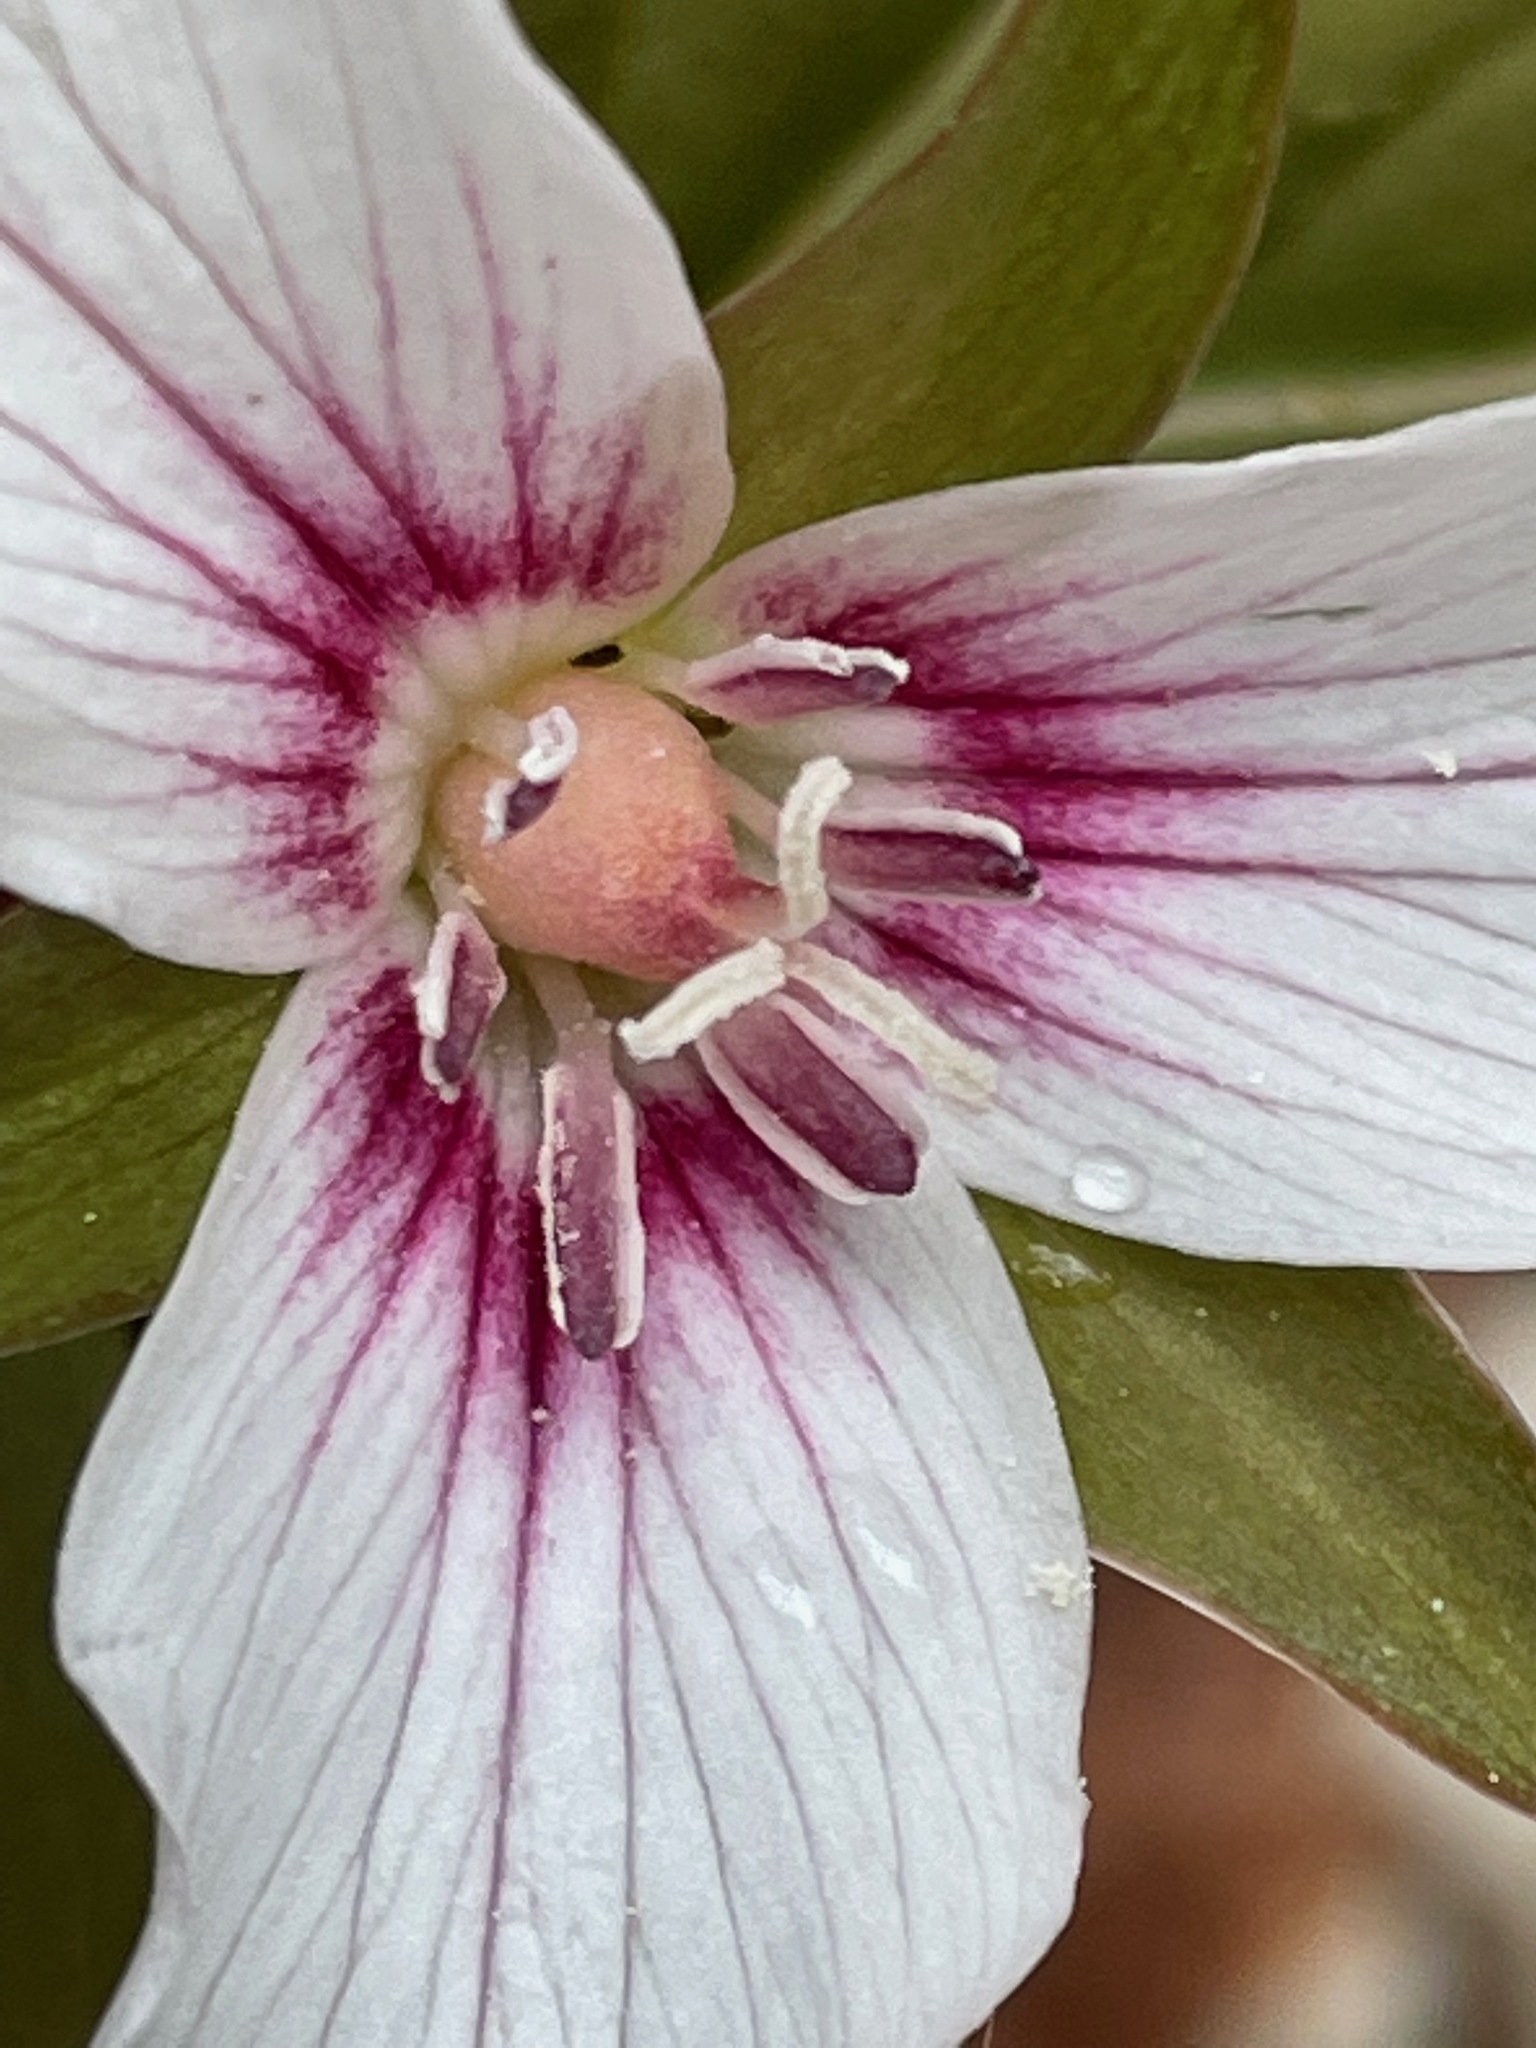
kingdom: Plantae
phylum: Tracheophyta
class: Liliopsida
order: Liliales
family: Melanthiaceae
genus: Trillium
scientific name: Trillium undulatum
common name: Paint trillium
